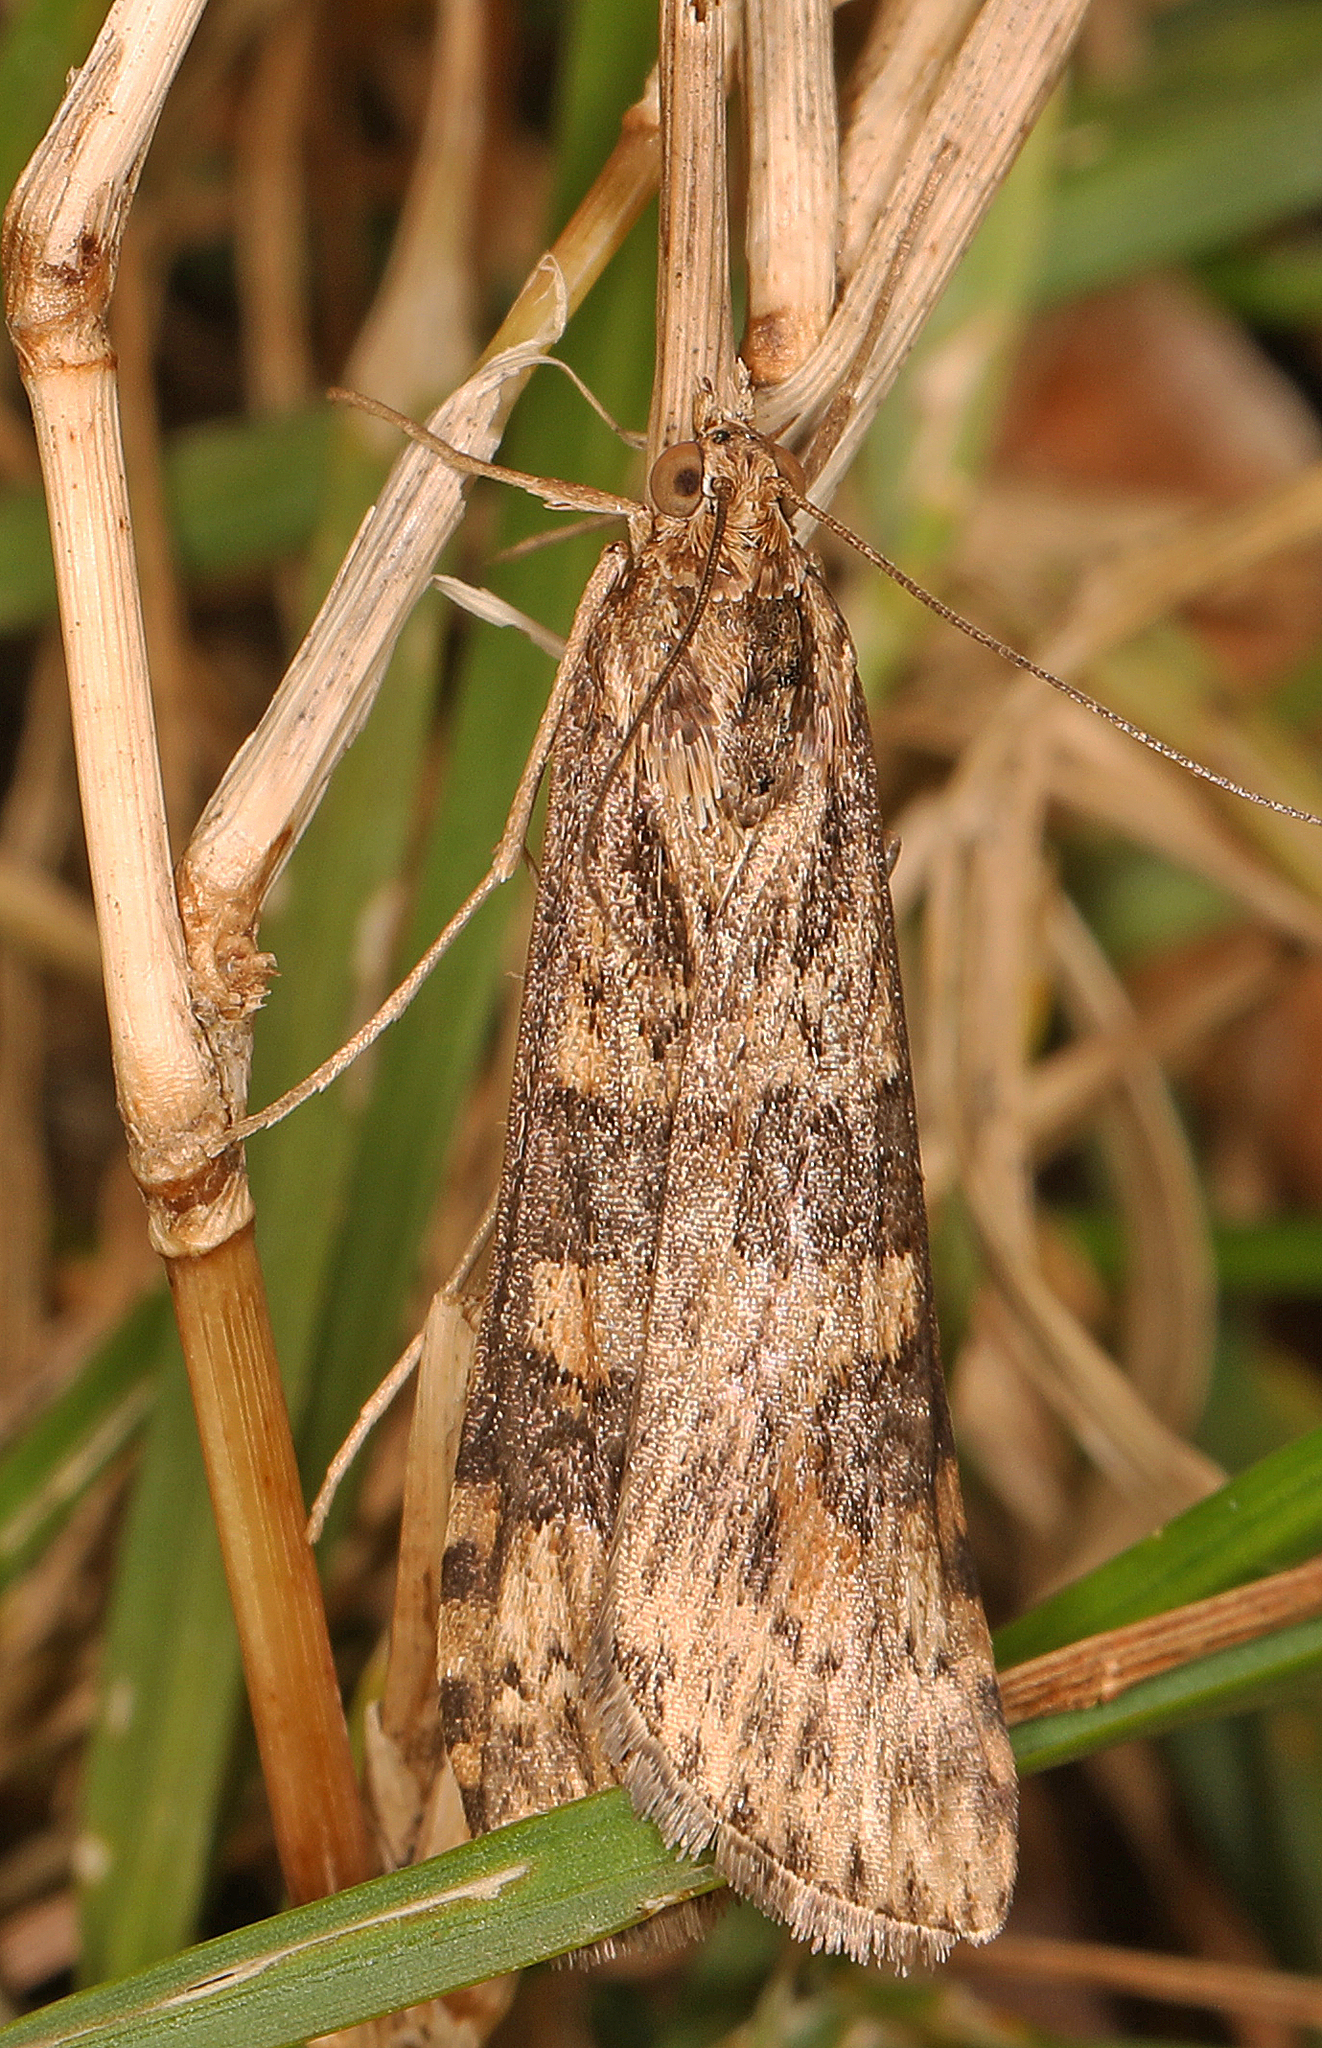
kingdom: Animalia
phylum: Arthropoda
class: Insecta
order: Lepidoptera
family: Crambidae
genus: Nomophila
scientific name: Nomophila nearctica
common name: American rush veneer
